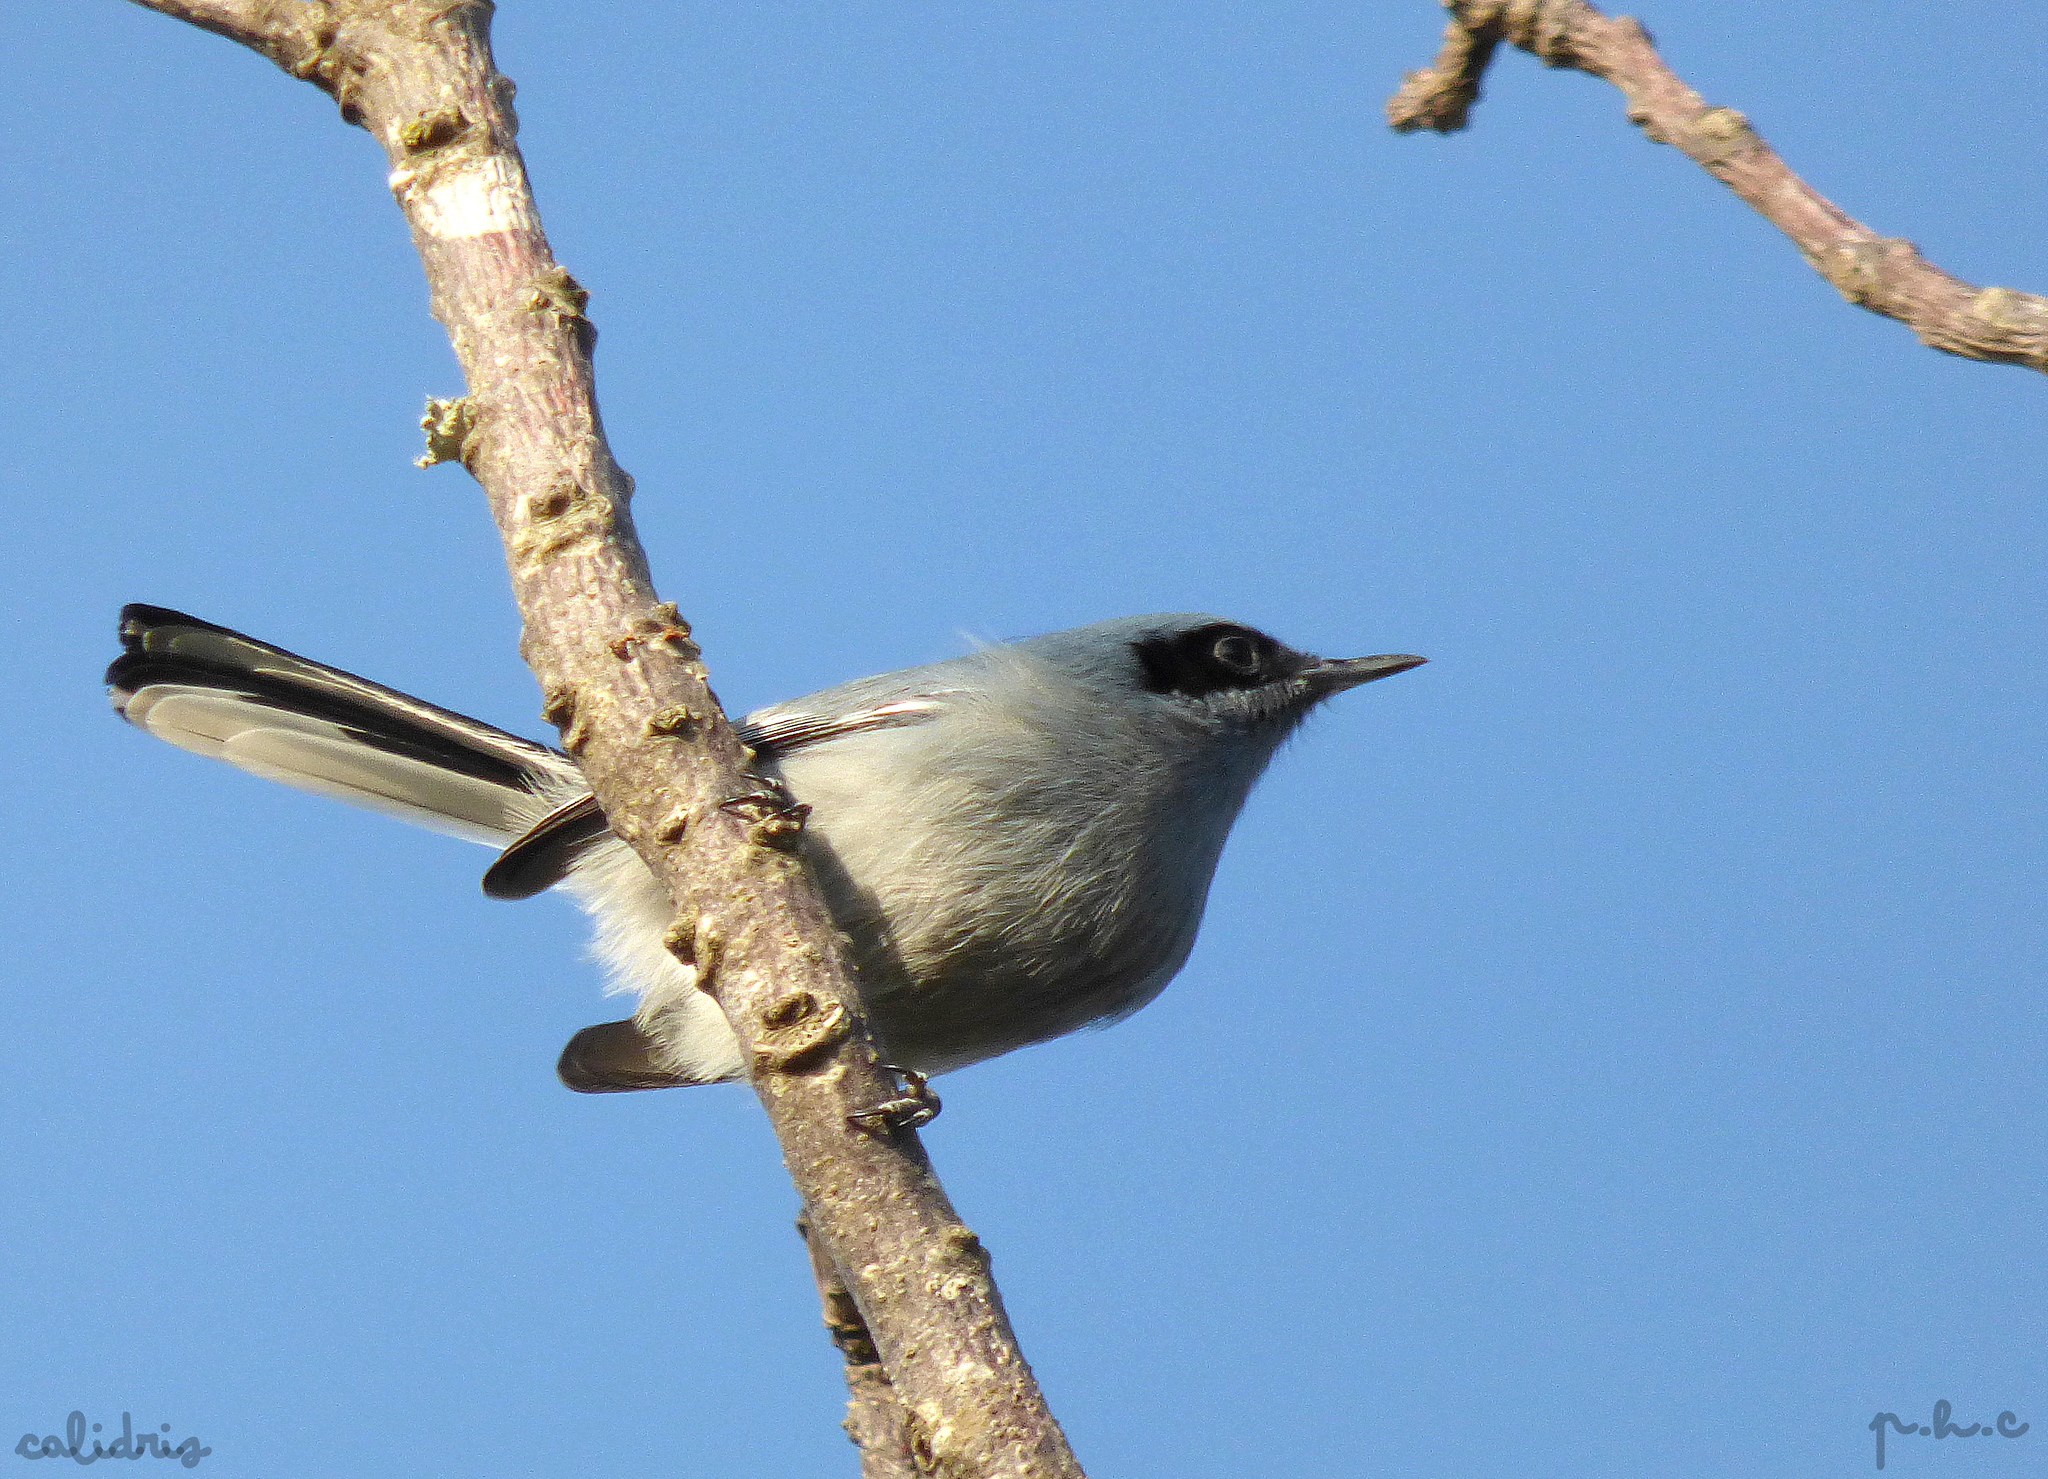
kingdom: Animalia
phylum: Chordata
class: Aves
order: Passeriformes
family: Polioptilidae
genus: Polioptila
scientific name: Polioptila dumicola
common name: Masked gnatcatcher
